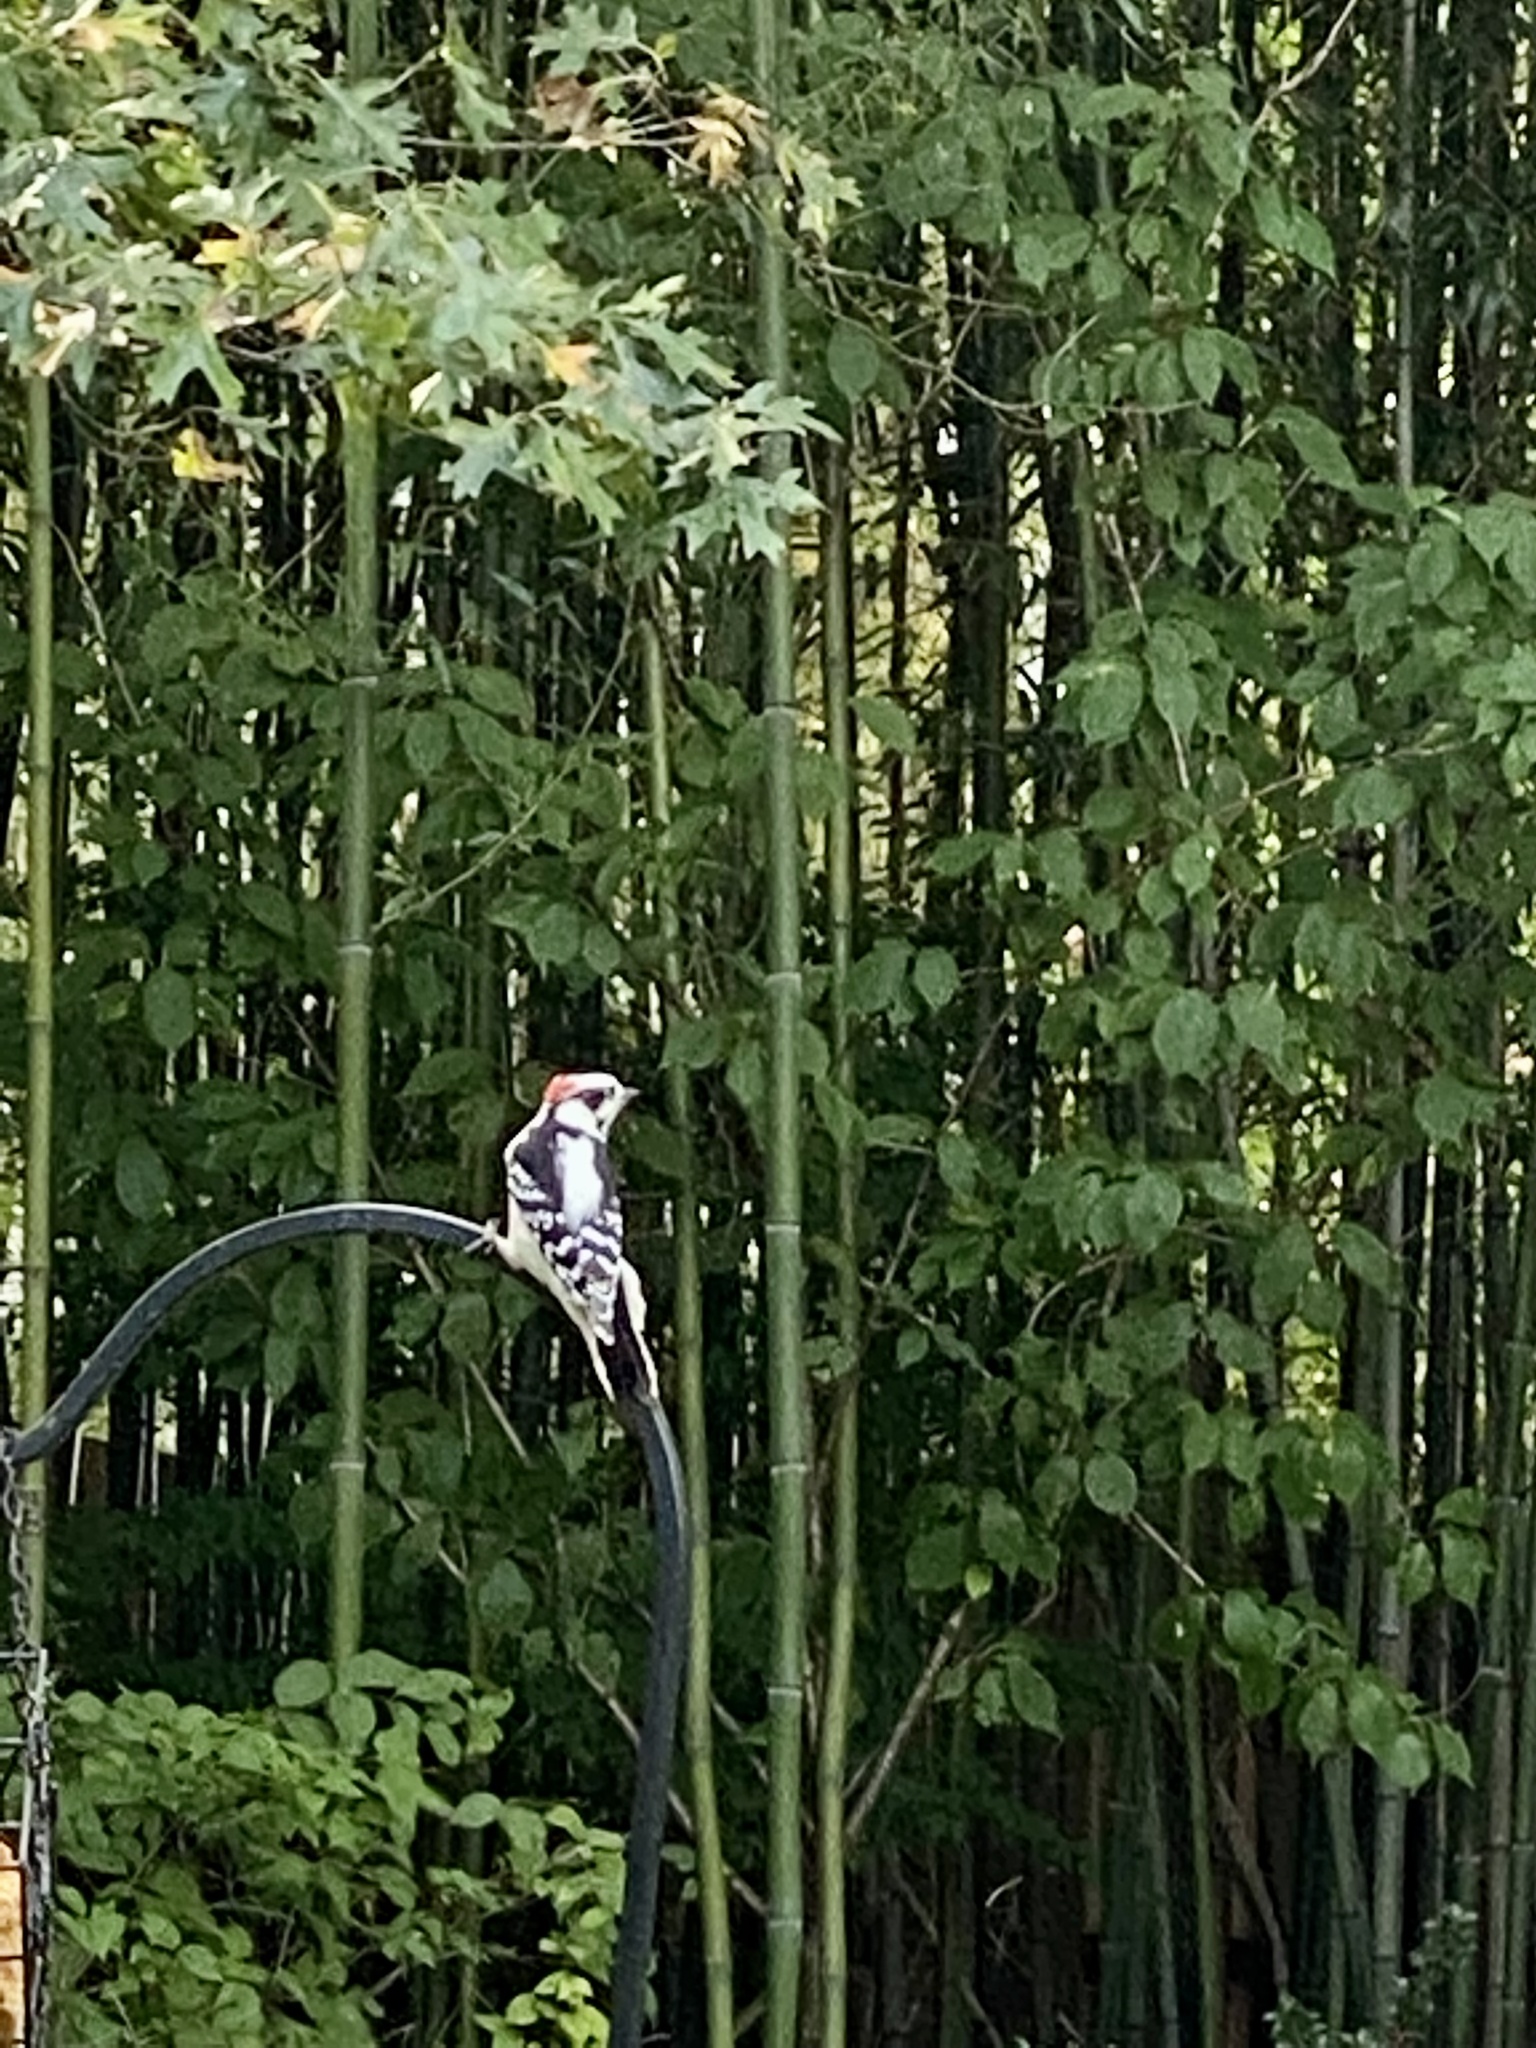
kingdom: Animalia
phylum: Chordata
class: Aves
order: Piciformes
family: Picidae
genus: Dryobates
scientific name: Dryobates pubescens
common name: Downy woodpecker
